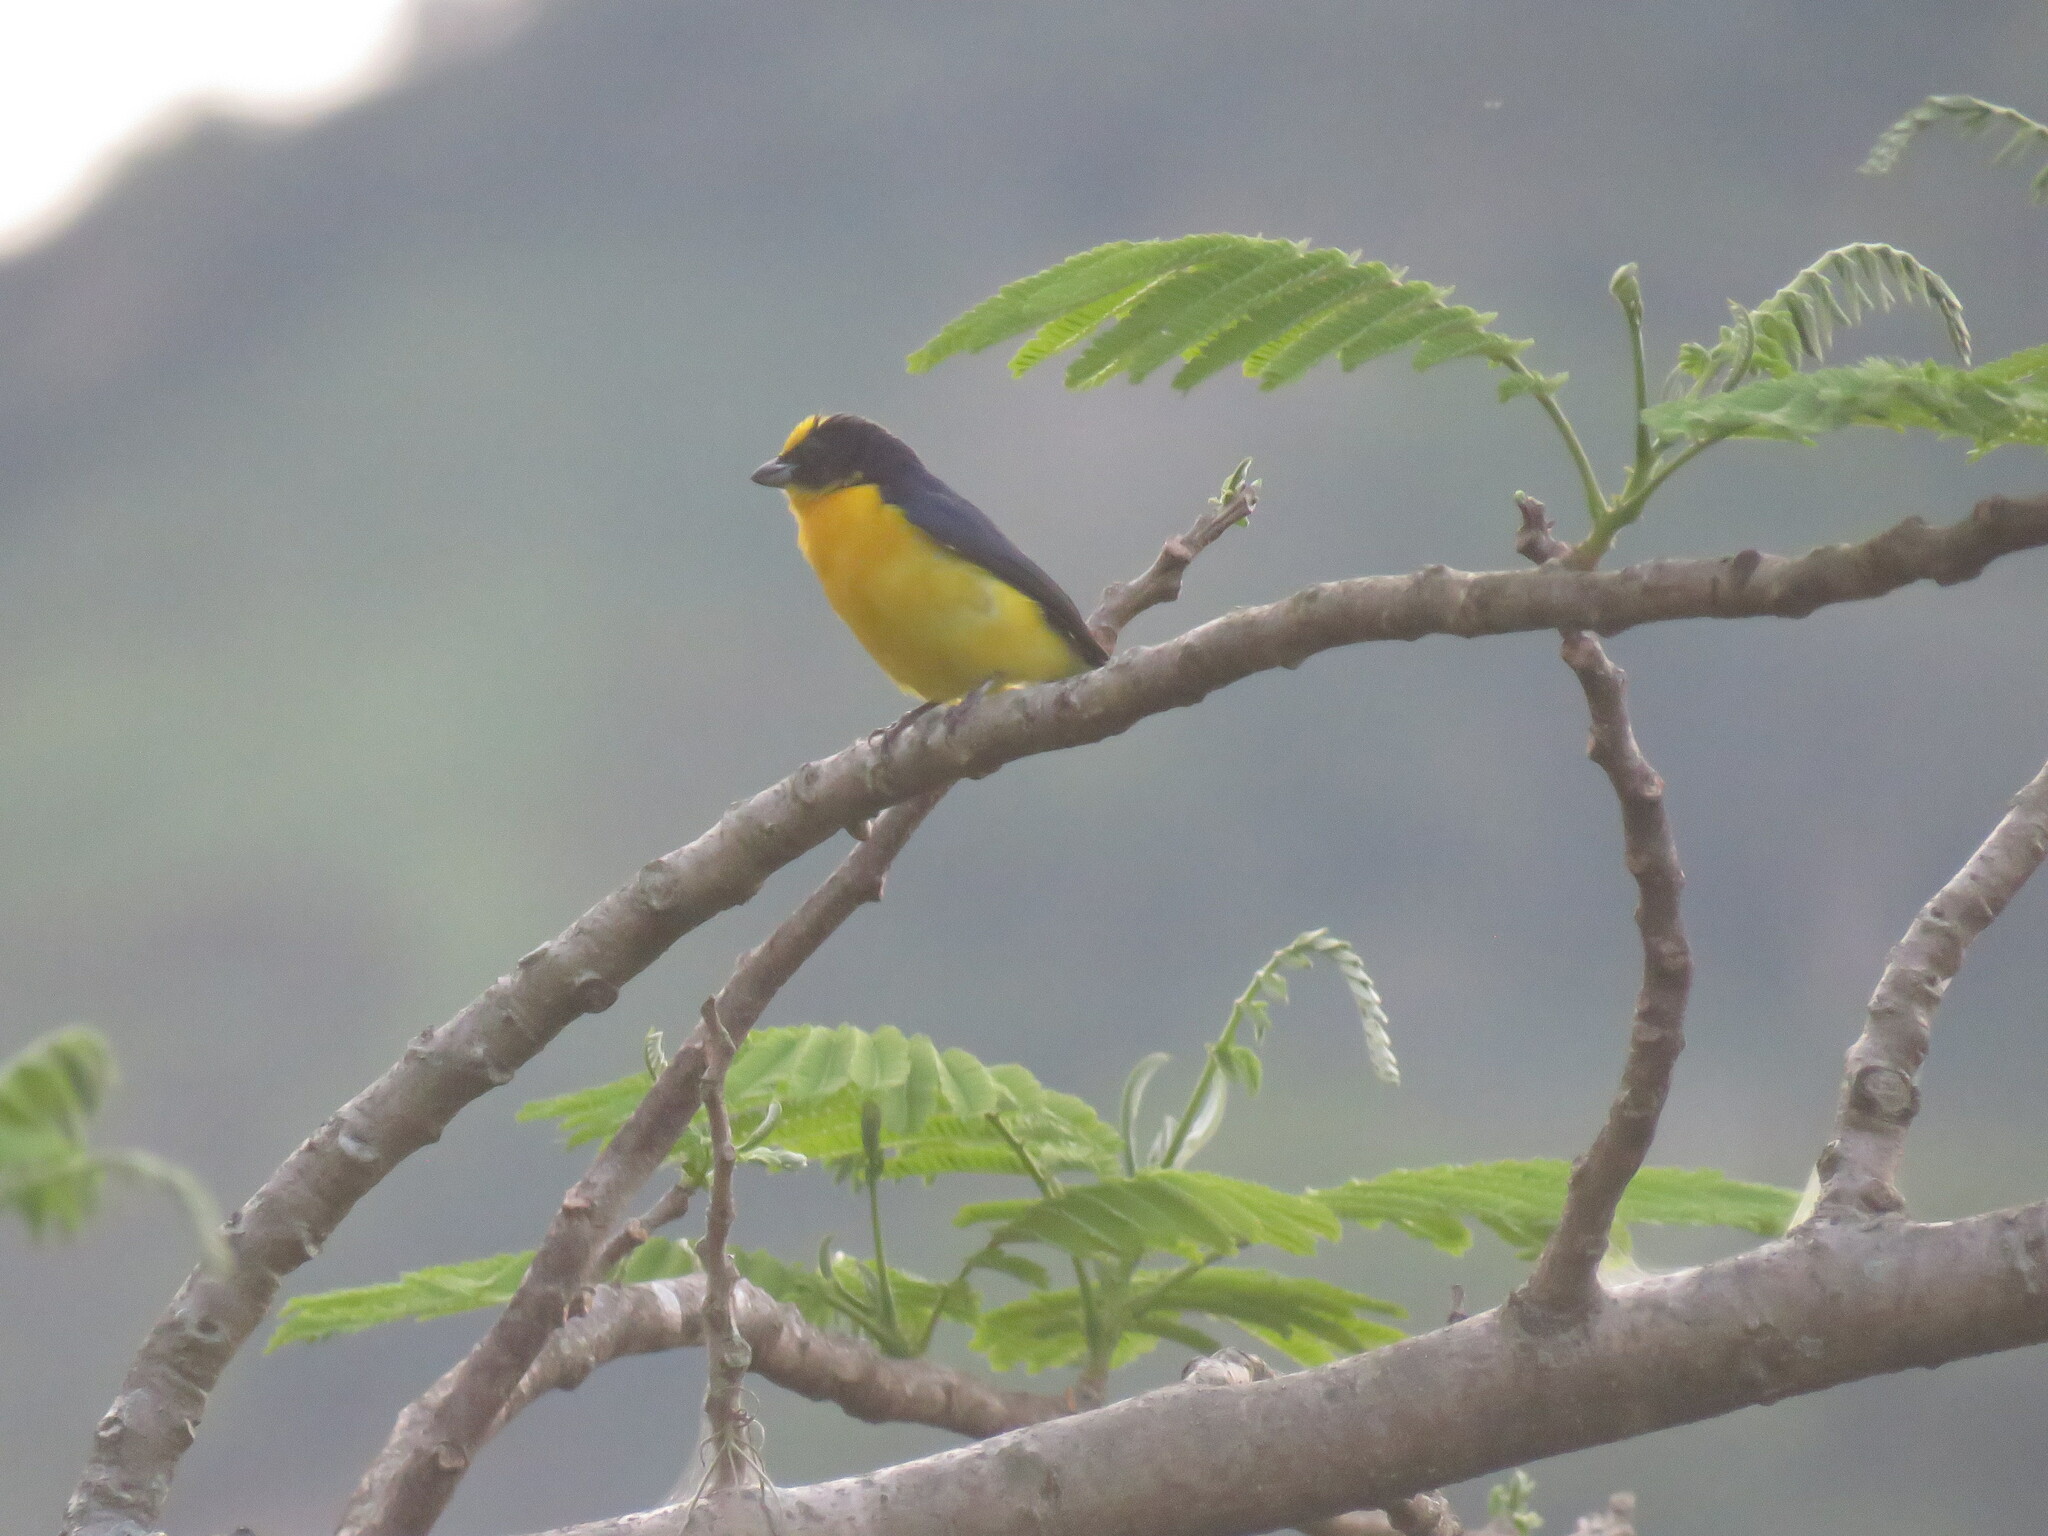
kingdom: Animalia
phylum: Chordata
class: Aves
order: Passeriformes
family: Fringillidae
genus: Euphonia
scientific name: Euphonia laniirostris
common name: Thick-billed euphonia
